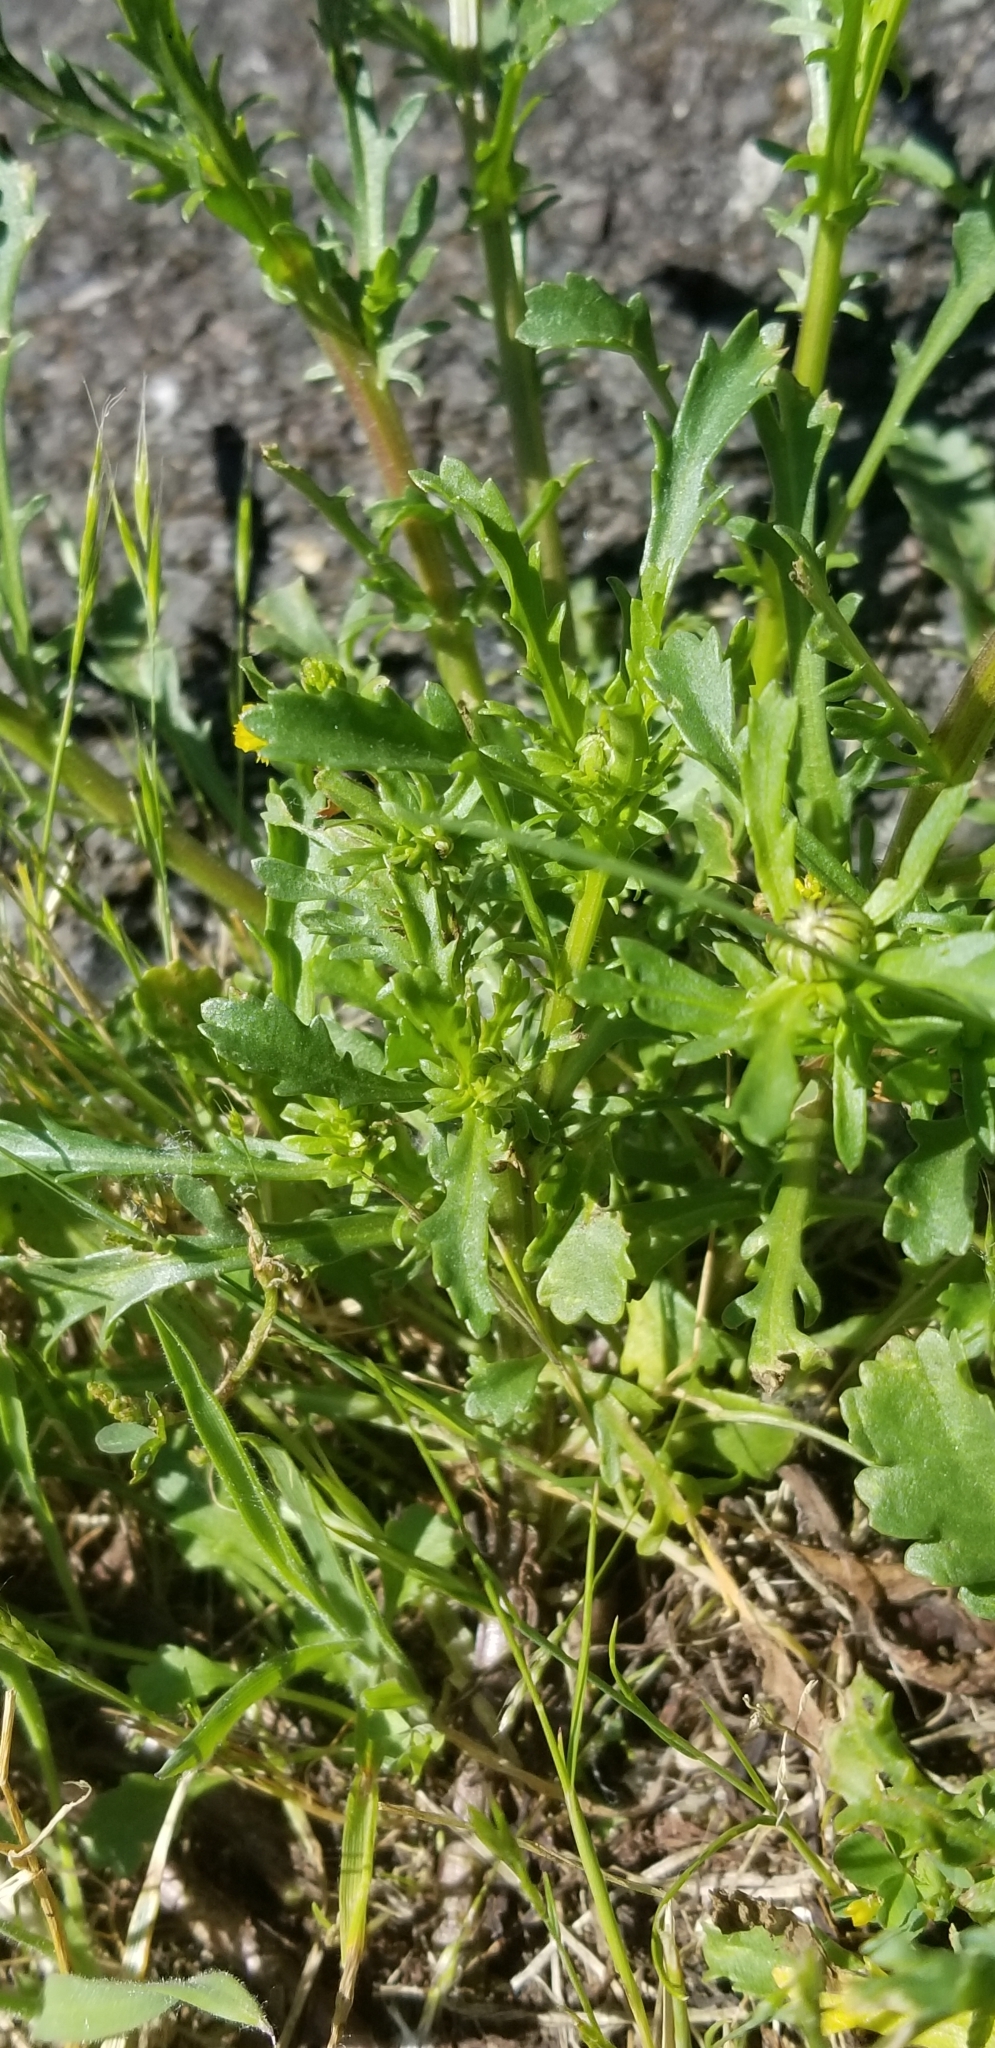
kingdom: Plantae
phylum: Tracheophyta
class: Magnoliopsida
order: Asterales
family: Asteraceae
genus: Leucanthemum
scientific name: Leucanthemum vulgare
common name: Oxeye daisy
